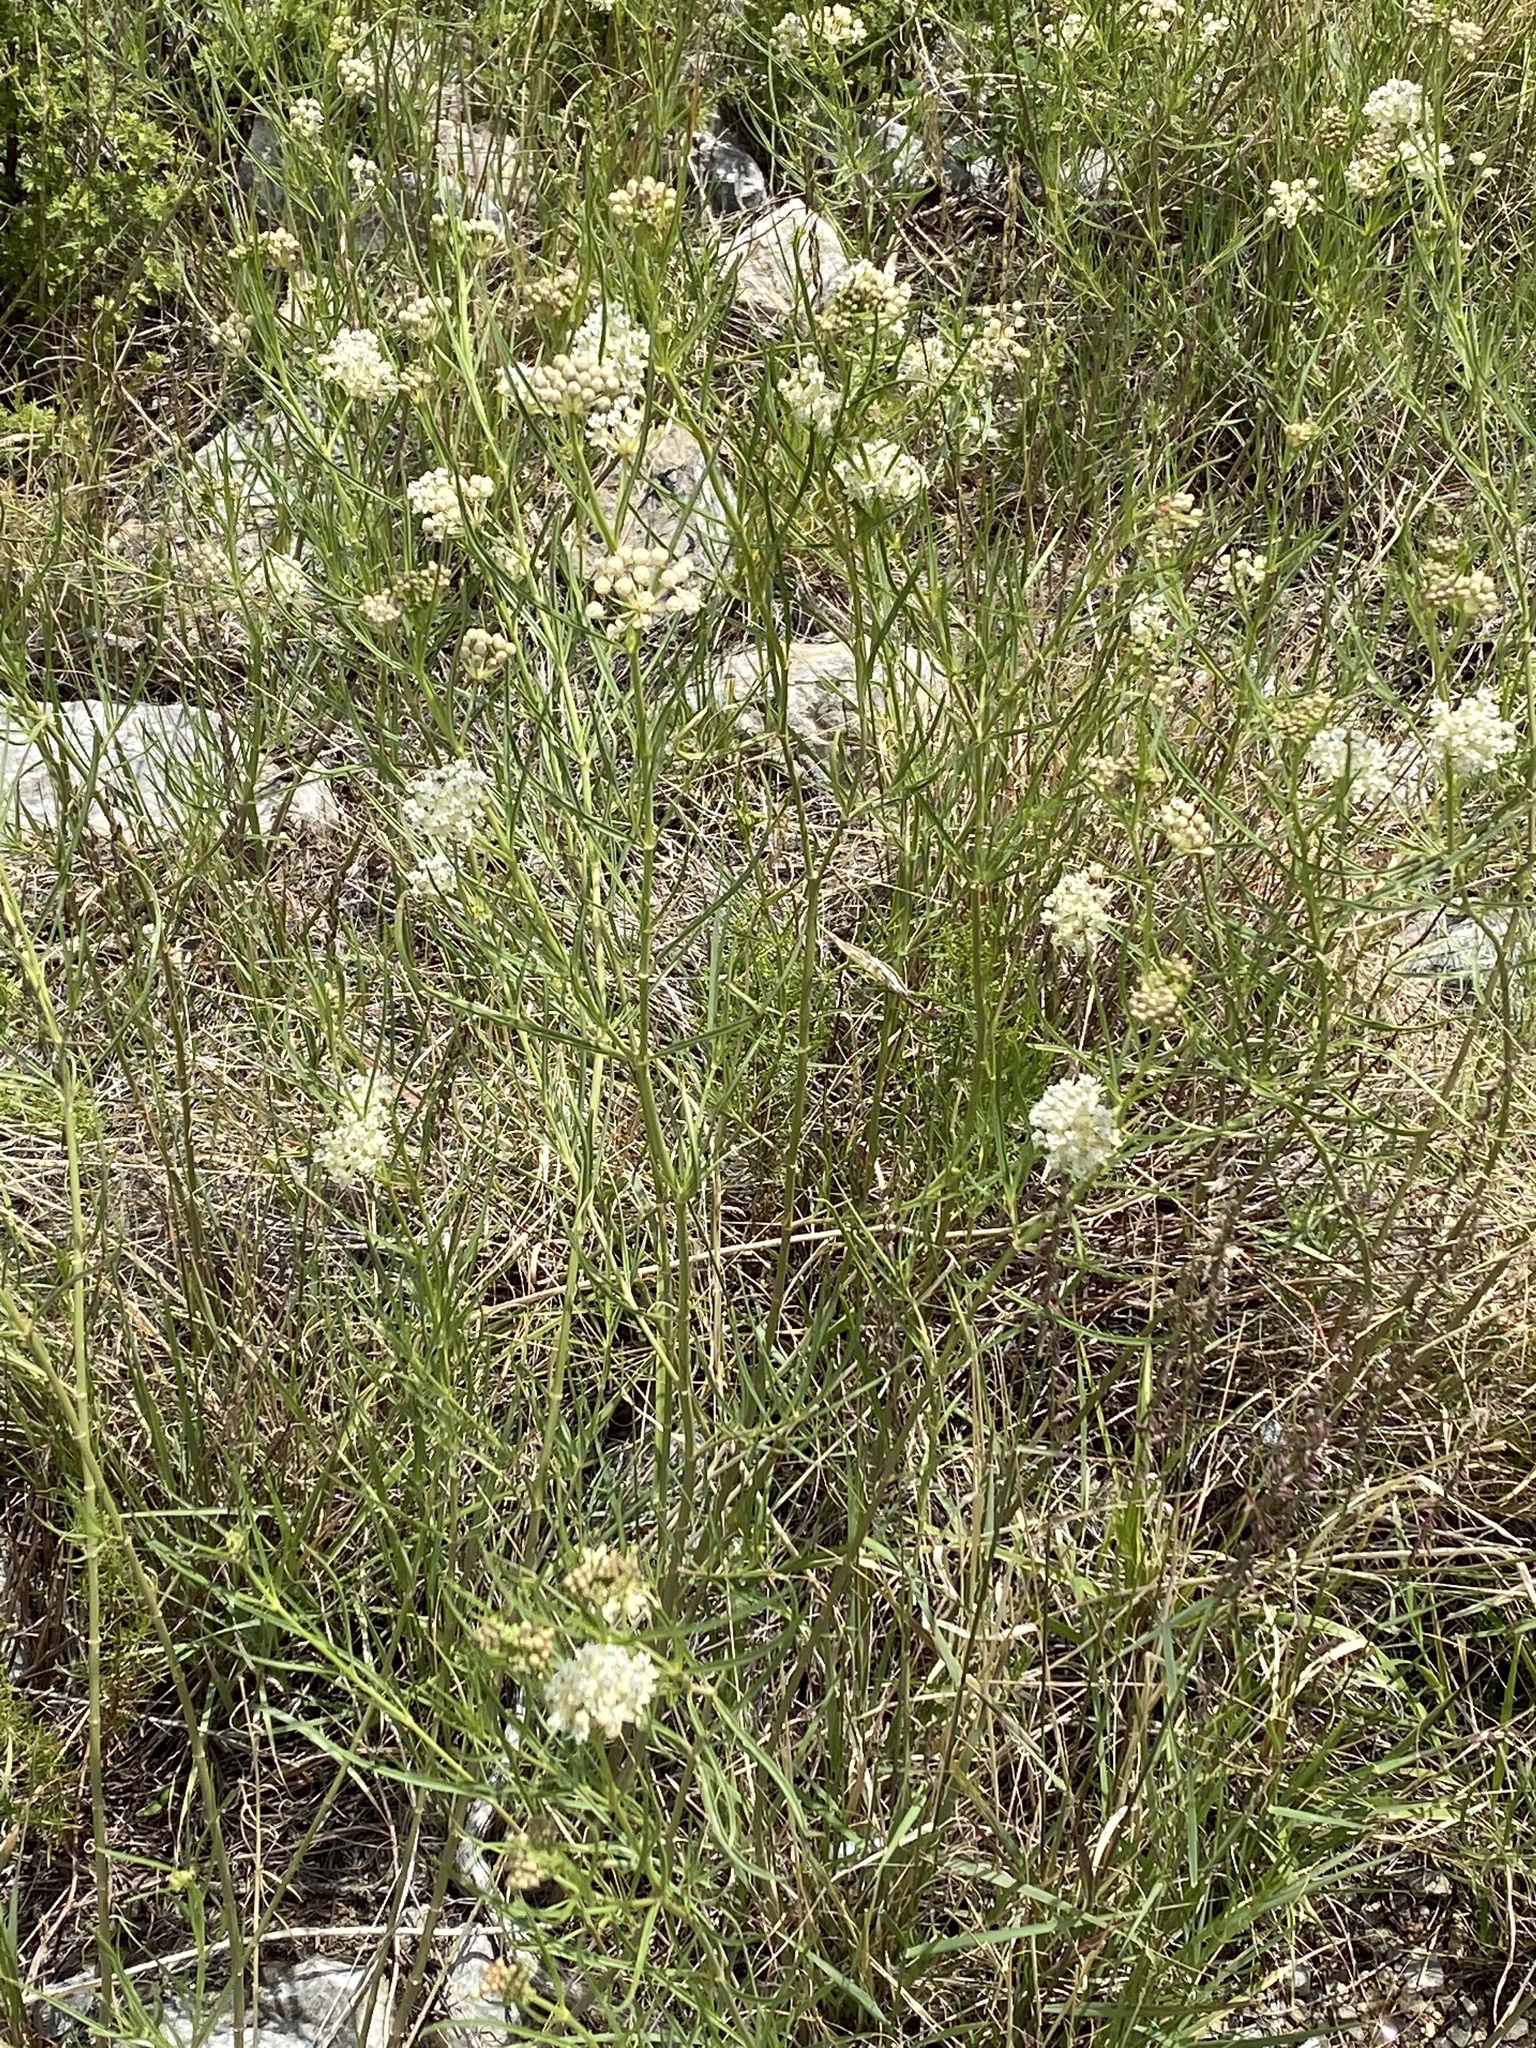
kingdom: Plantae
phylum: Tracheophyta
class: Magnoliopsida
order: Gentianales
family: Apocynaceae
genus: Asclepias
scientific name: Asclepias subverticillata
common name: Horsetail milkweed
